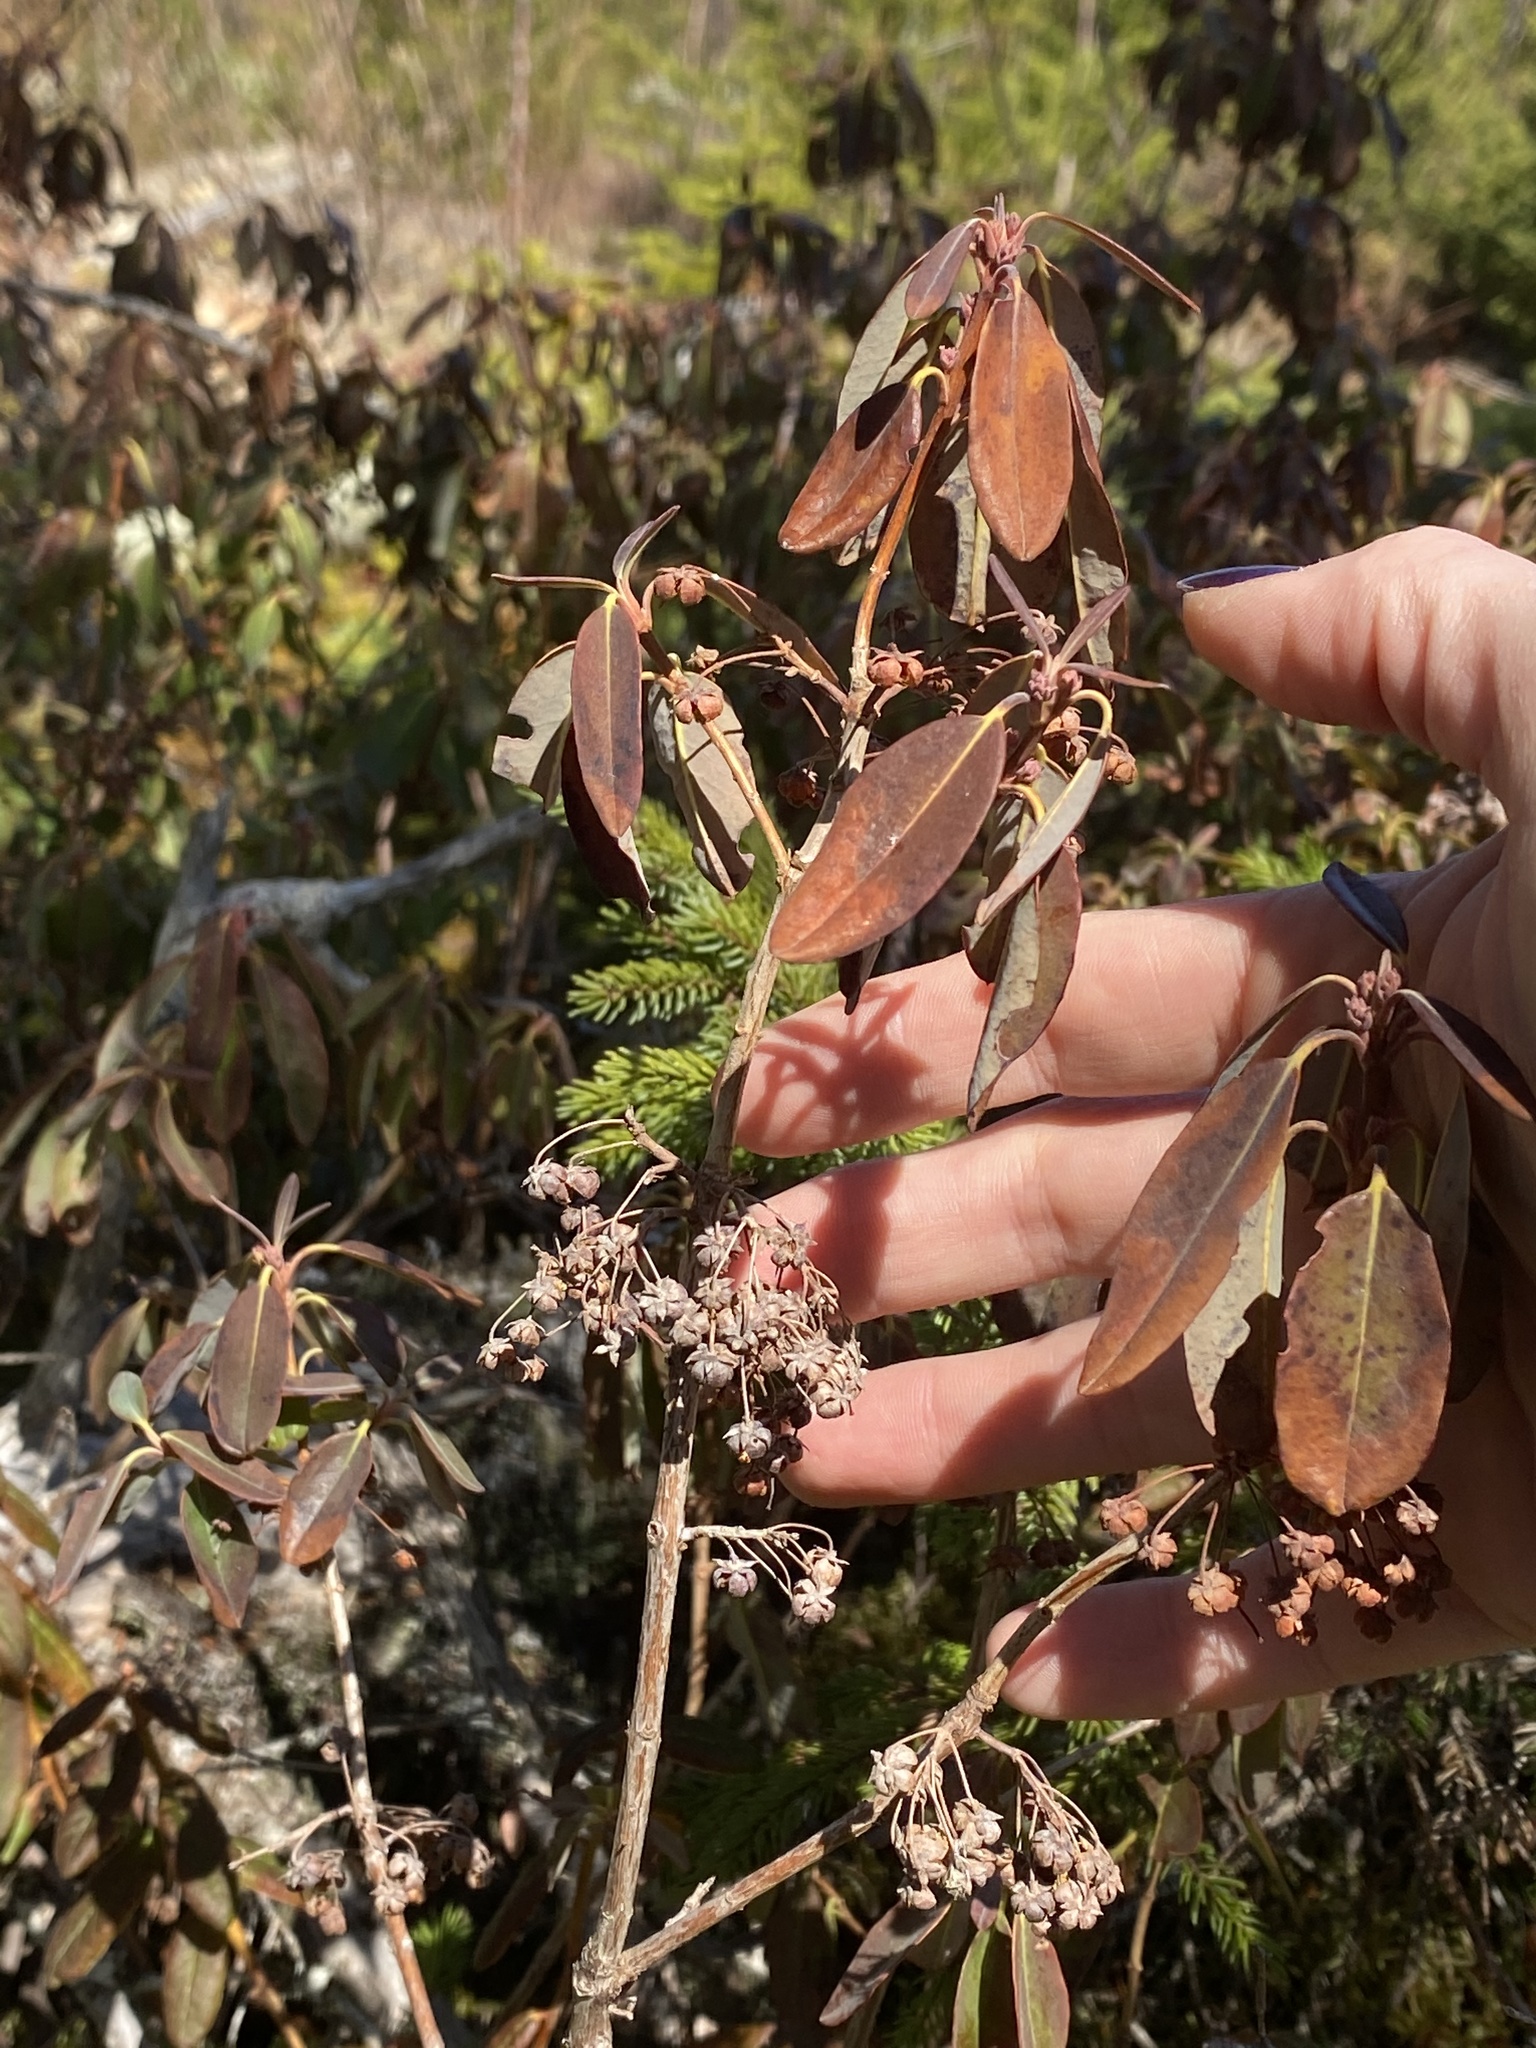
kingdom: Plantae
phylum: Tracheophyta
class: Magnoliopsida
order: Ericales
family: Ericaceae
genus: Kalmia
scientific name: Kalmia angustifolia
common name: Sheep-laurel
